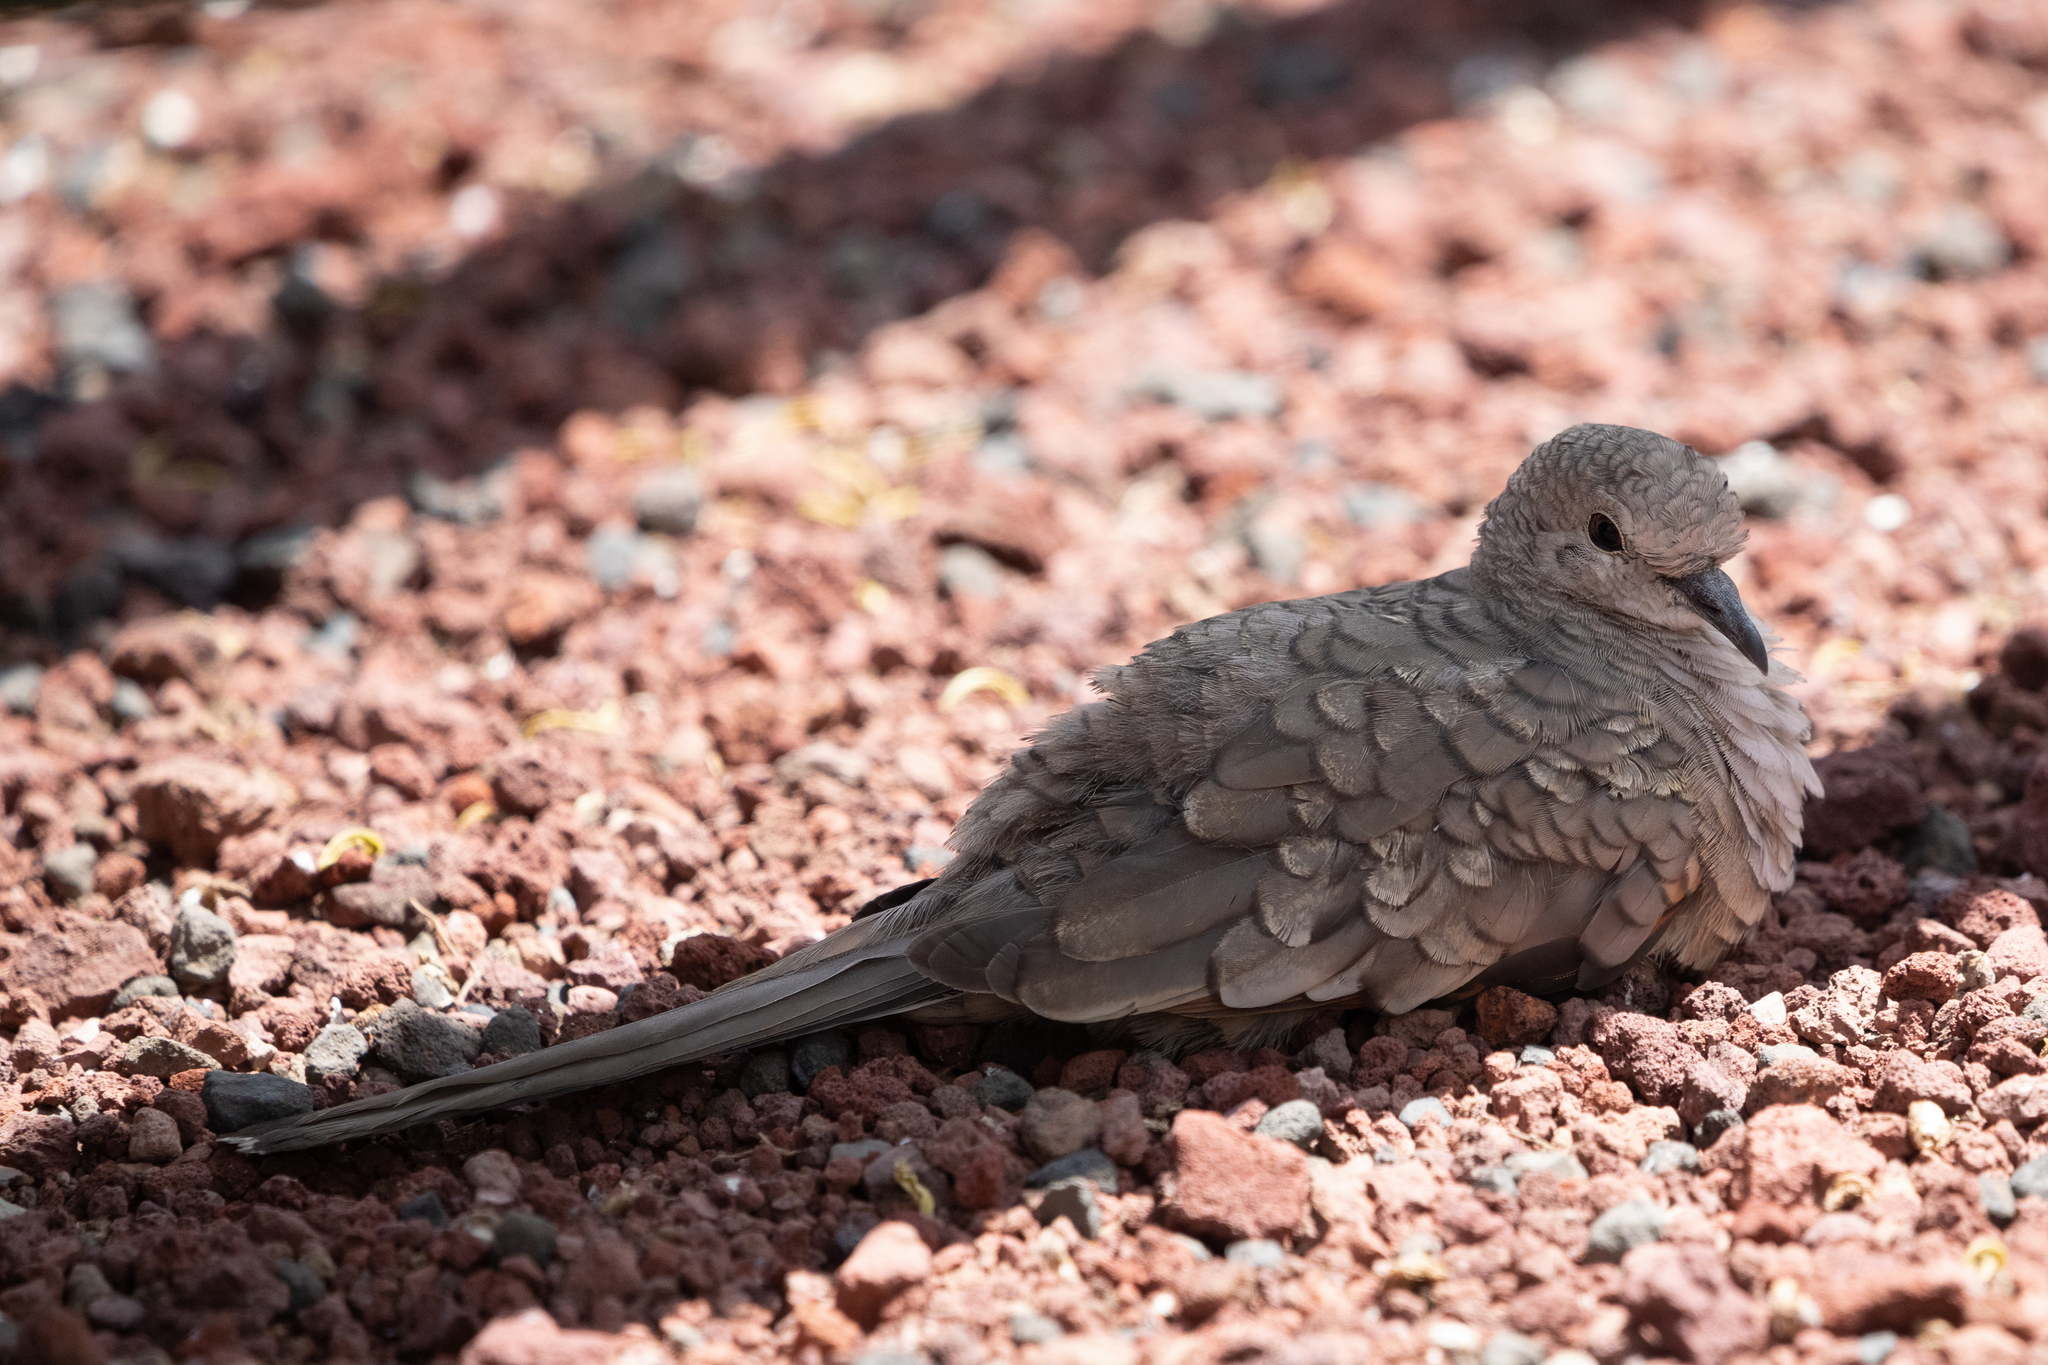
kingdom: Animalia
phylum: Chordata
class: Aves
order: Columbiformes
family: Columbidae
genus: Columbina
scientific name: Columbina inca
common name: Inca dove
